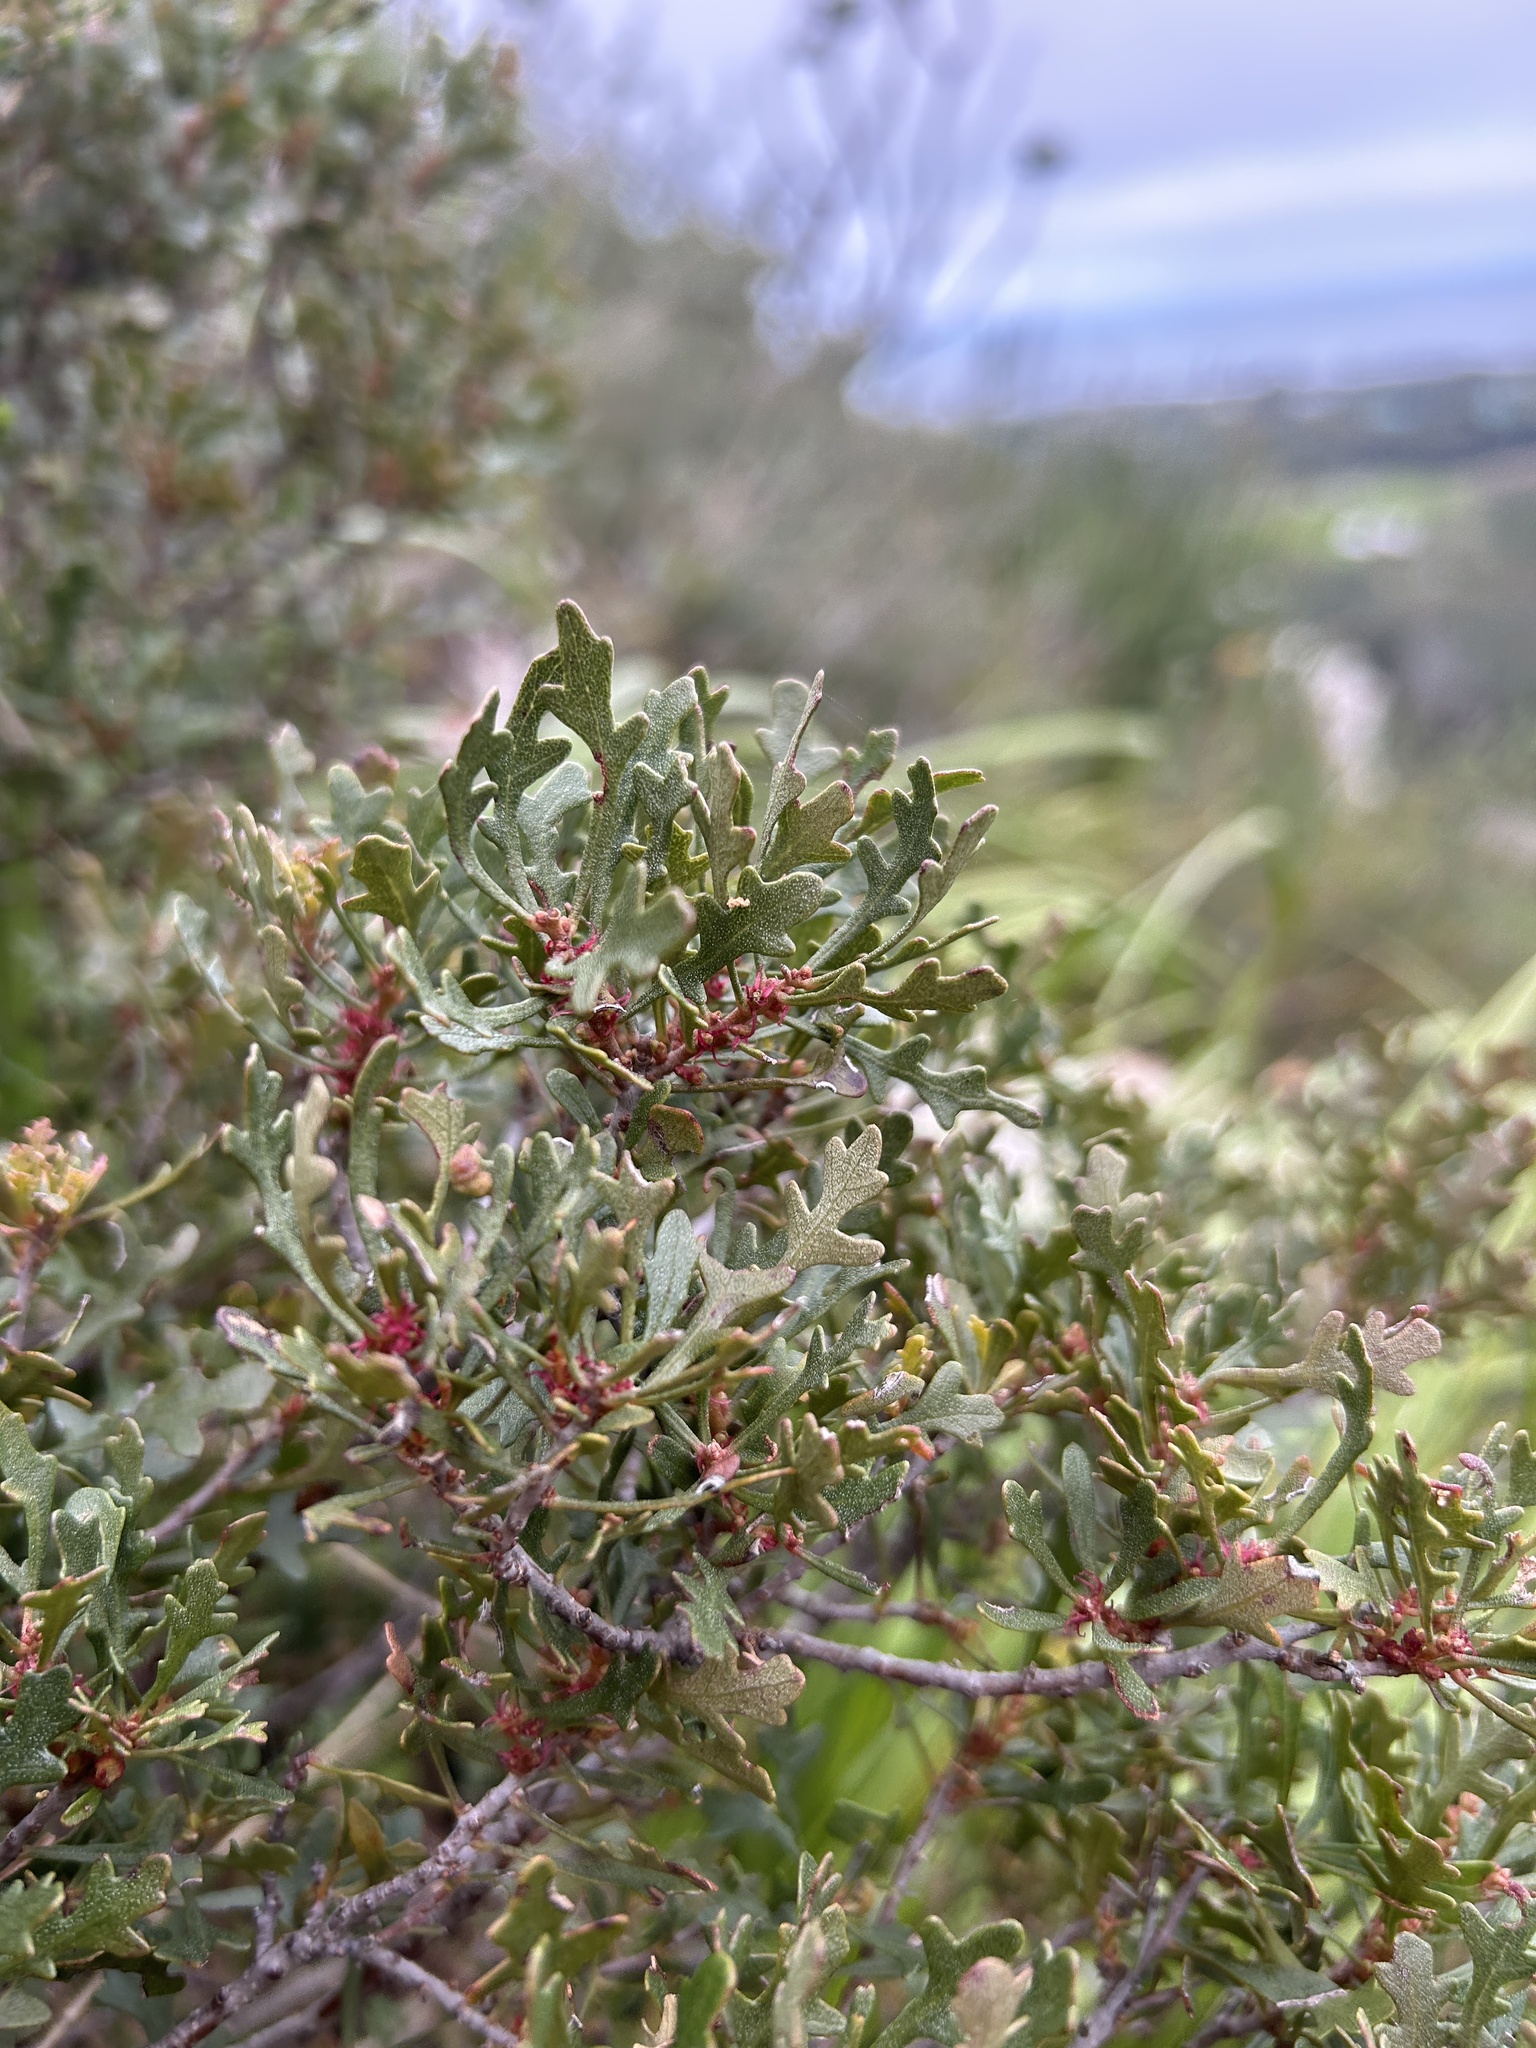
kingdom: Plantae
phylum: Tracheophyta
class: Magnoliopsida
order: Fagales
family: Myricaceae
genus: Morella
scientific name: Morella quercifolia
